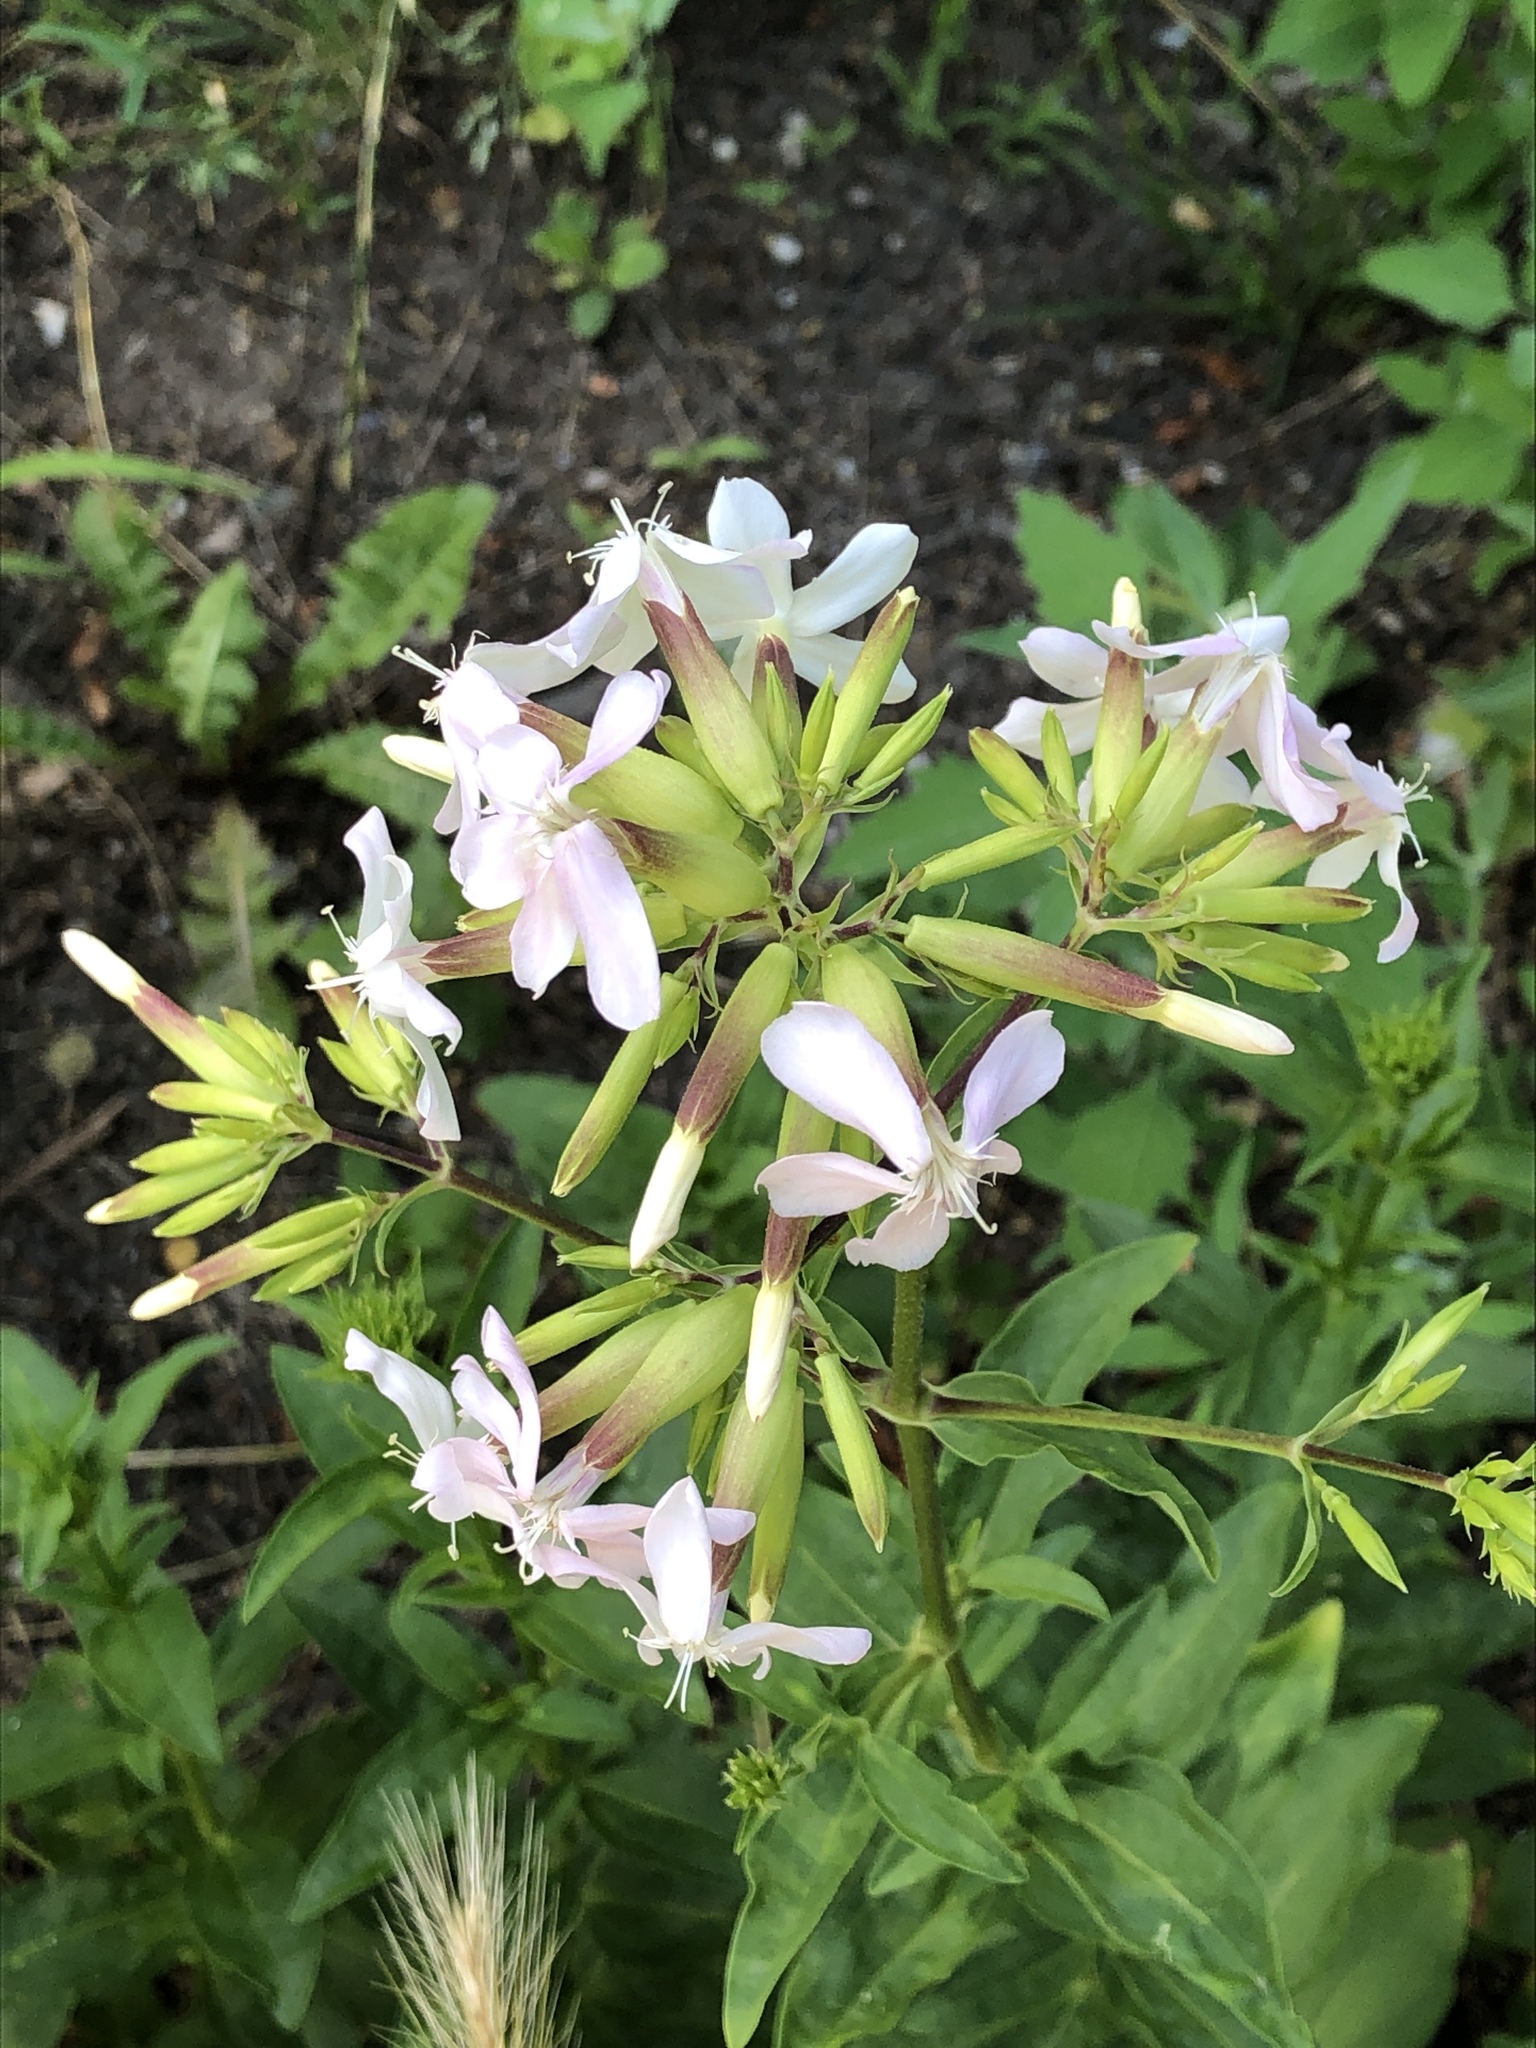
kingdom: Plantae
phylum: Tracheophyta
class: Magnoliopsida
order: Caryophyllales
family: Caryophyllaceae
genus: Saponaria
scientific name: Saponaria officinalis
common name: Soapwort
